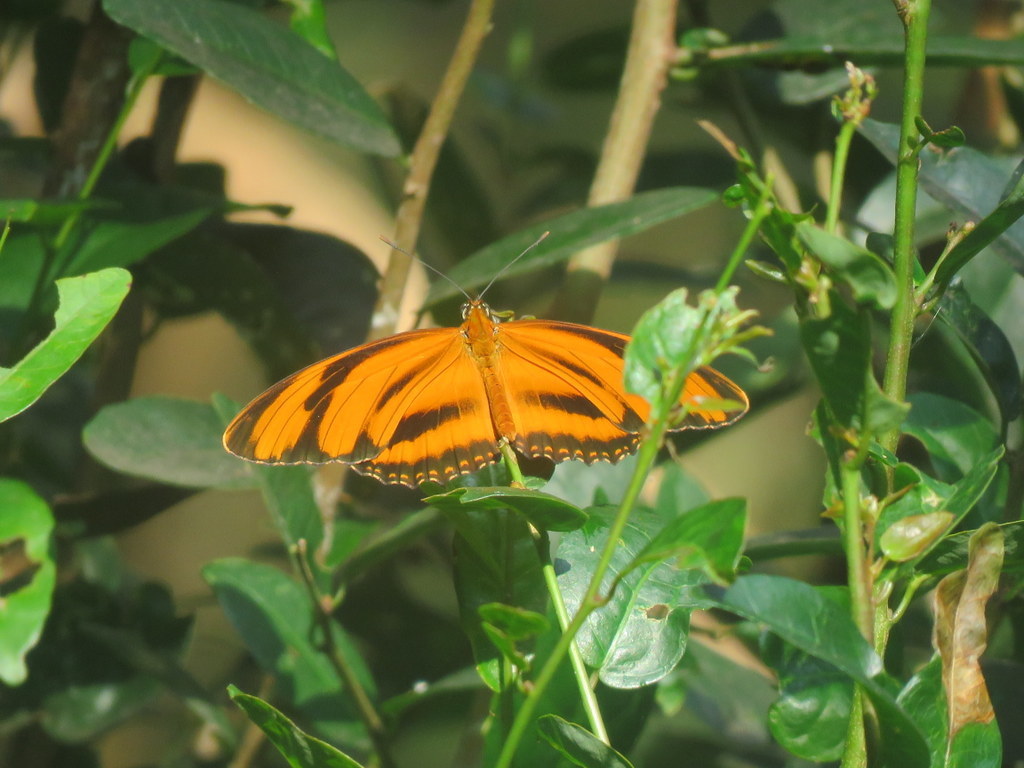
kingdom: Animalia
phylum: Arthropoda
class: Insecta
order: Lepidoptera
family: Nymphalidae
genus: Dryadula
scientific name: Dryadula phaetusa
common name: Banded orange heliconian
